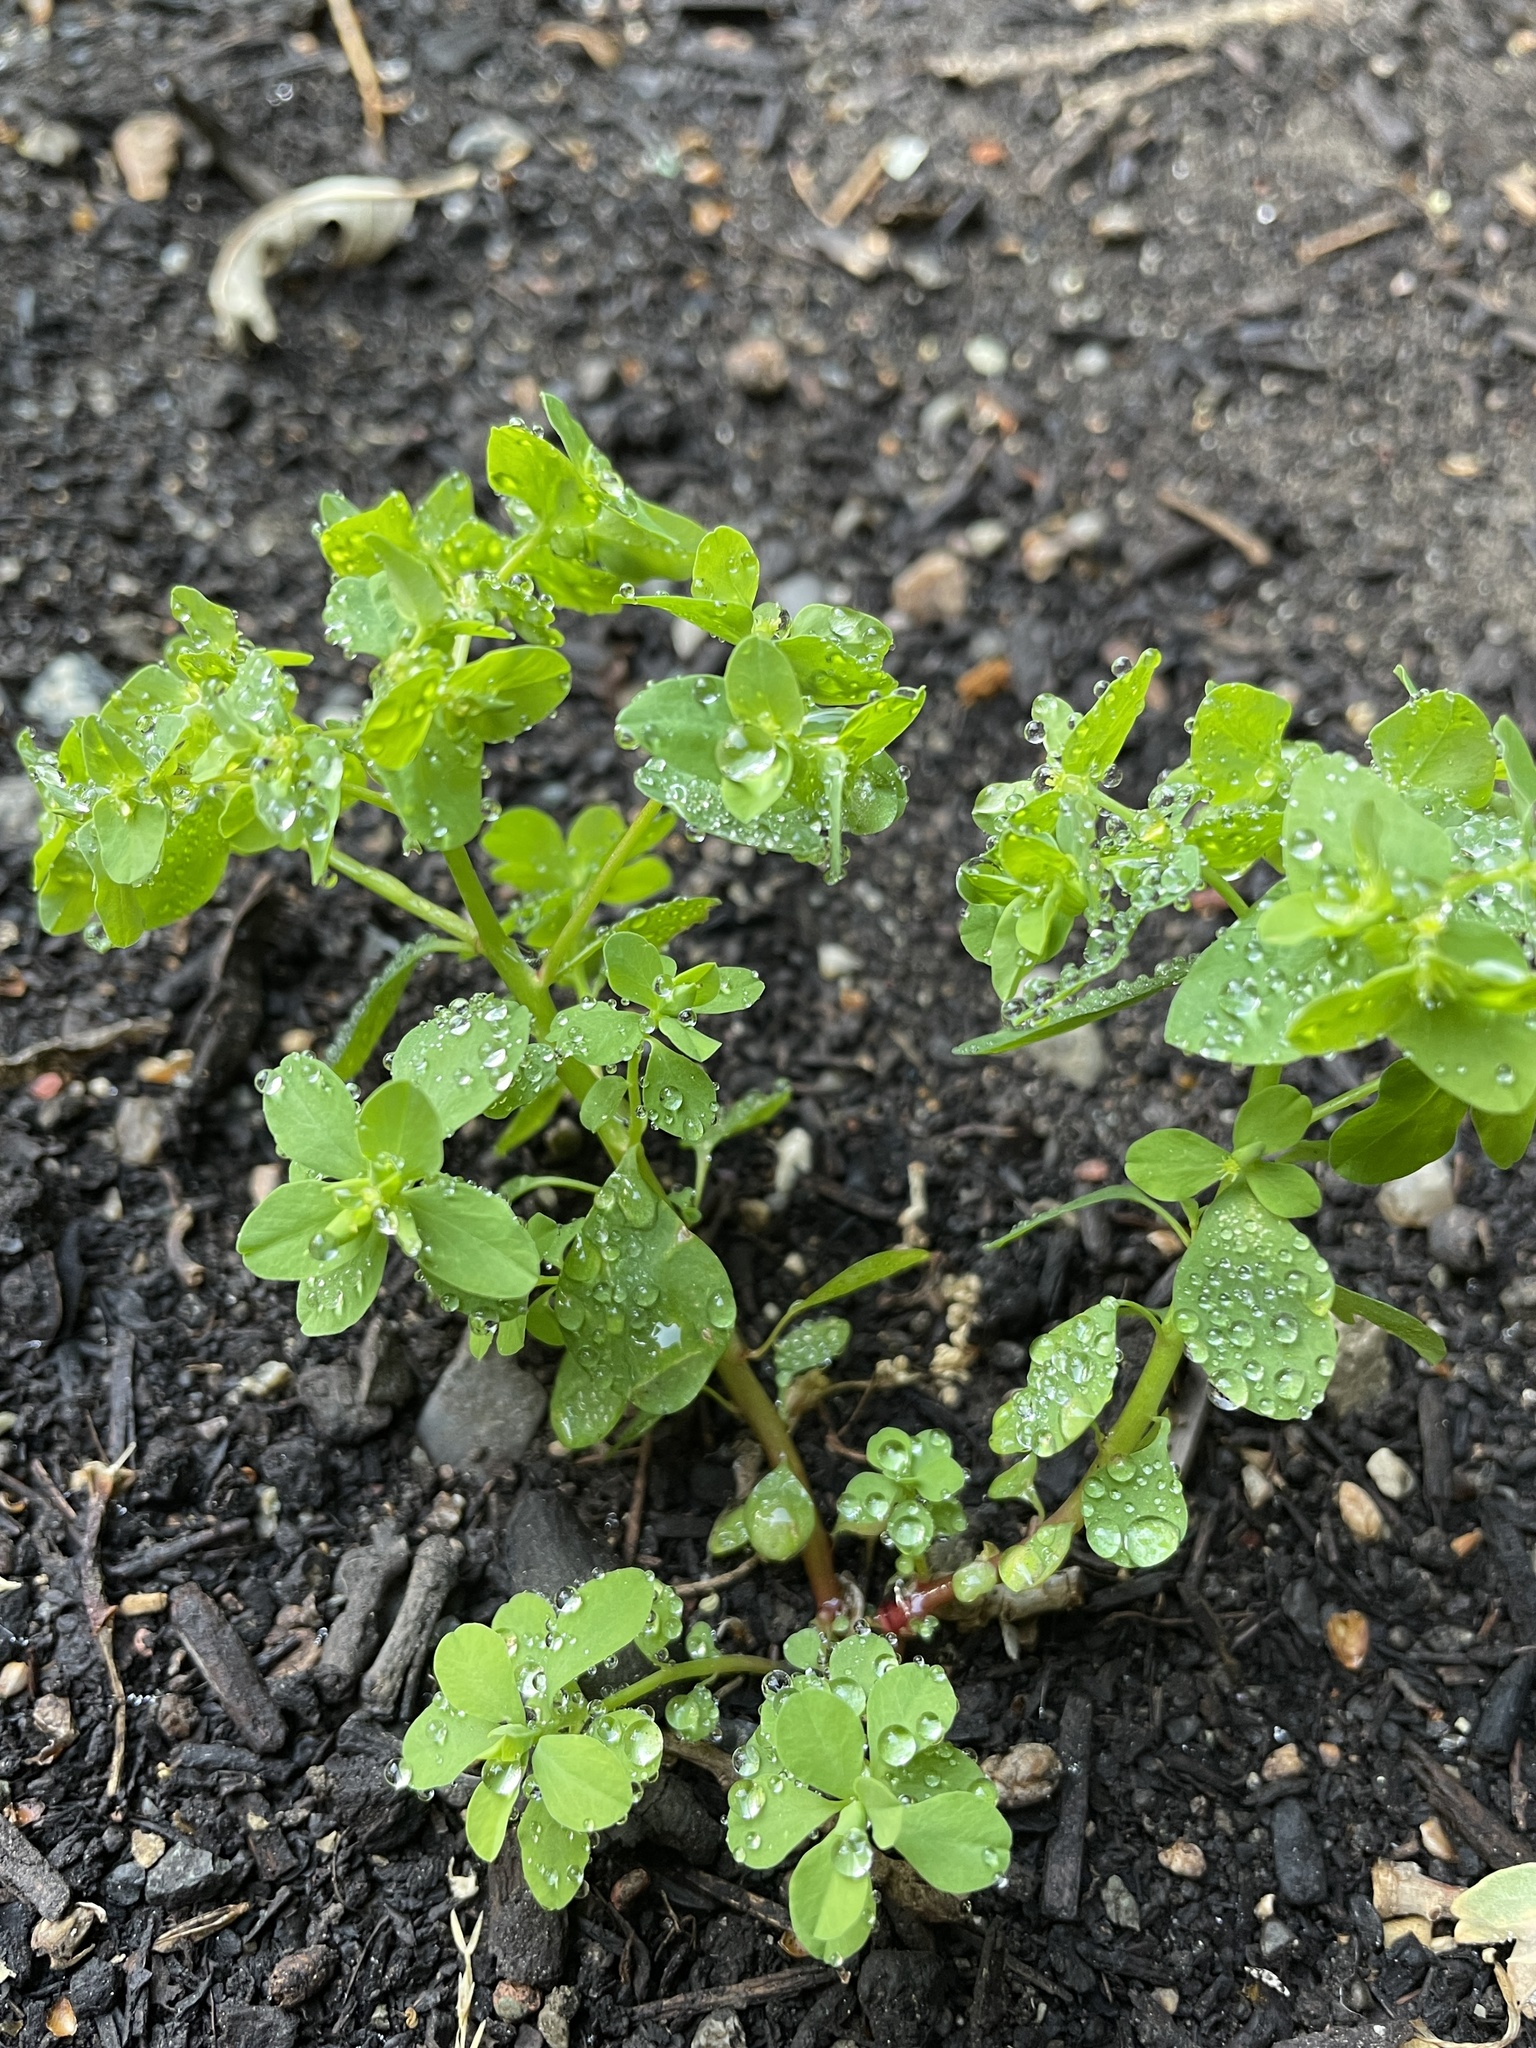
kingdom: Plantae
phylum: Tracheophyta
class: Magnoliopsida
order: Malpighiales
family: Euphorbiaceae
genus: Euphorbia
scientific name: Euphorbia peplus
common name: Petty spurge
